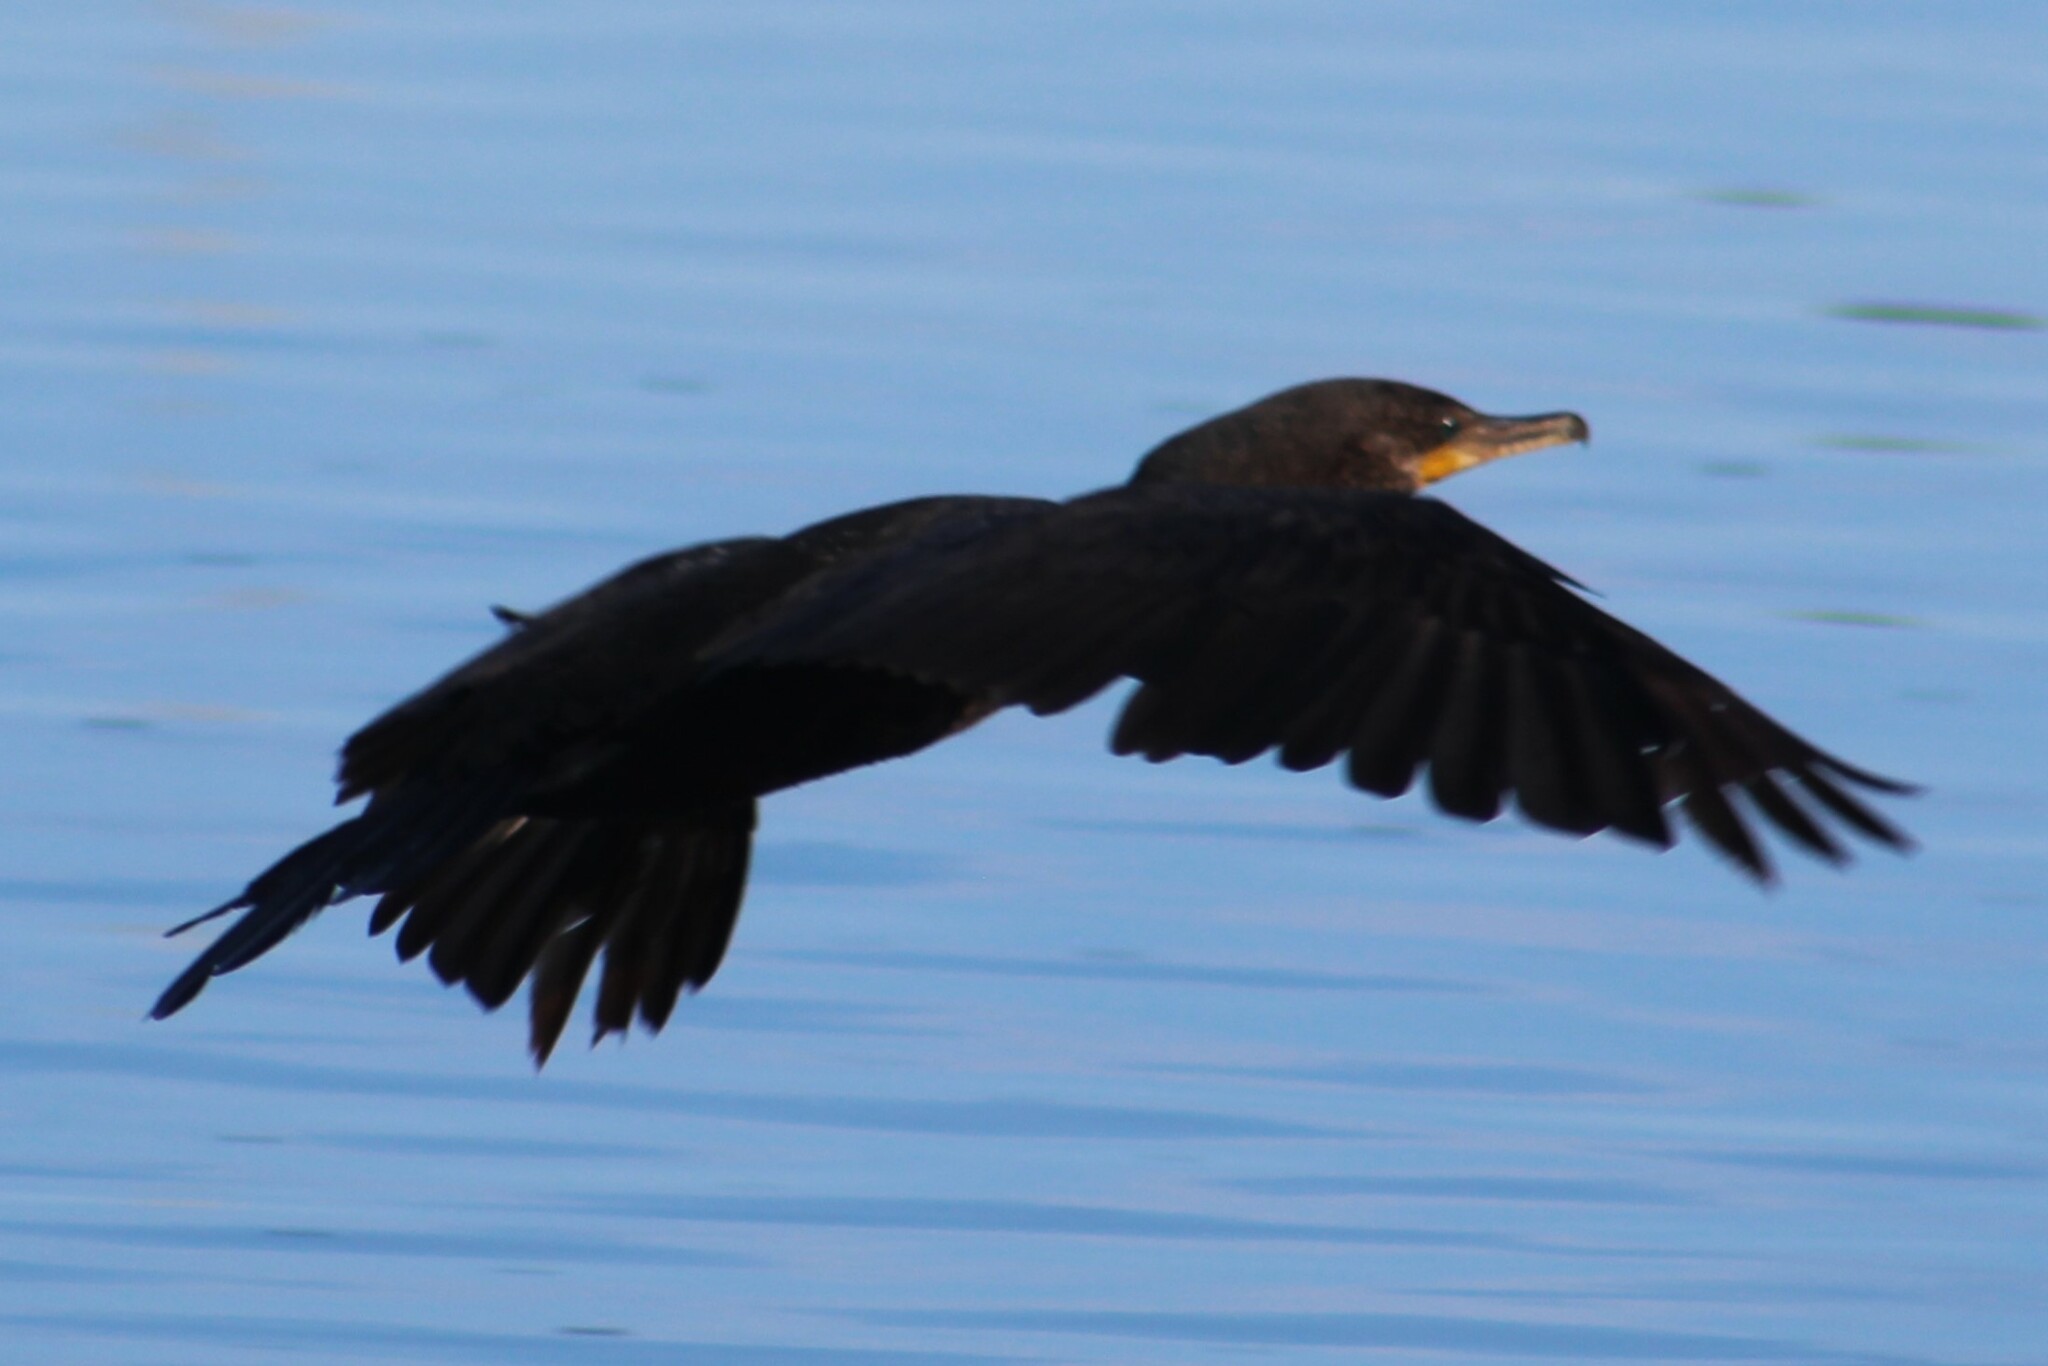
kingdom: Animalia
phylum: Chordata
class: Aves
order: Suliformes
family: Phalacrocoracidae
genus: Phalacrocorax
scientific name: Phalacrocorax brasilianus
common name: Neotropic cormorant
